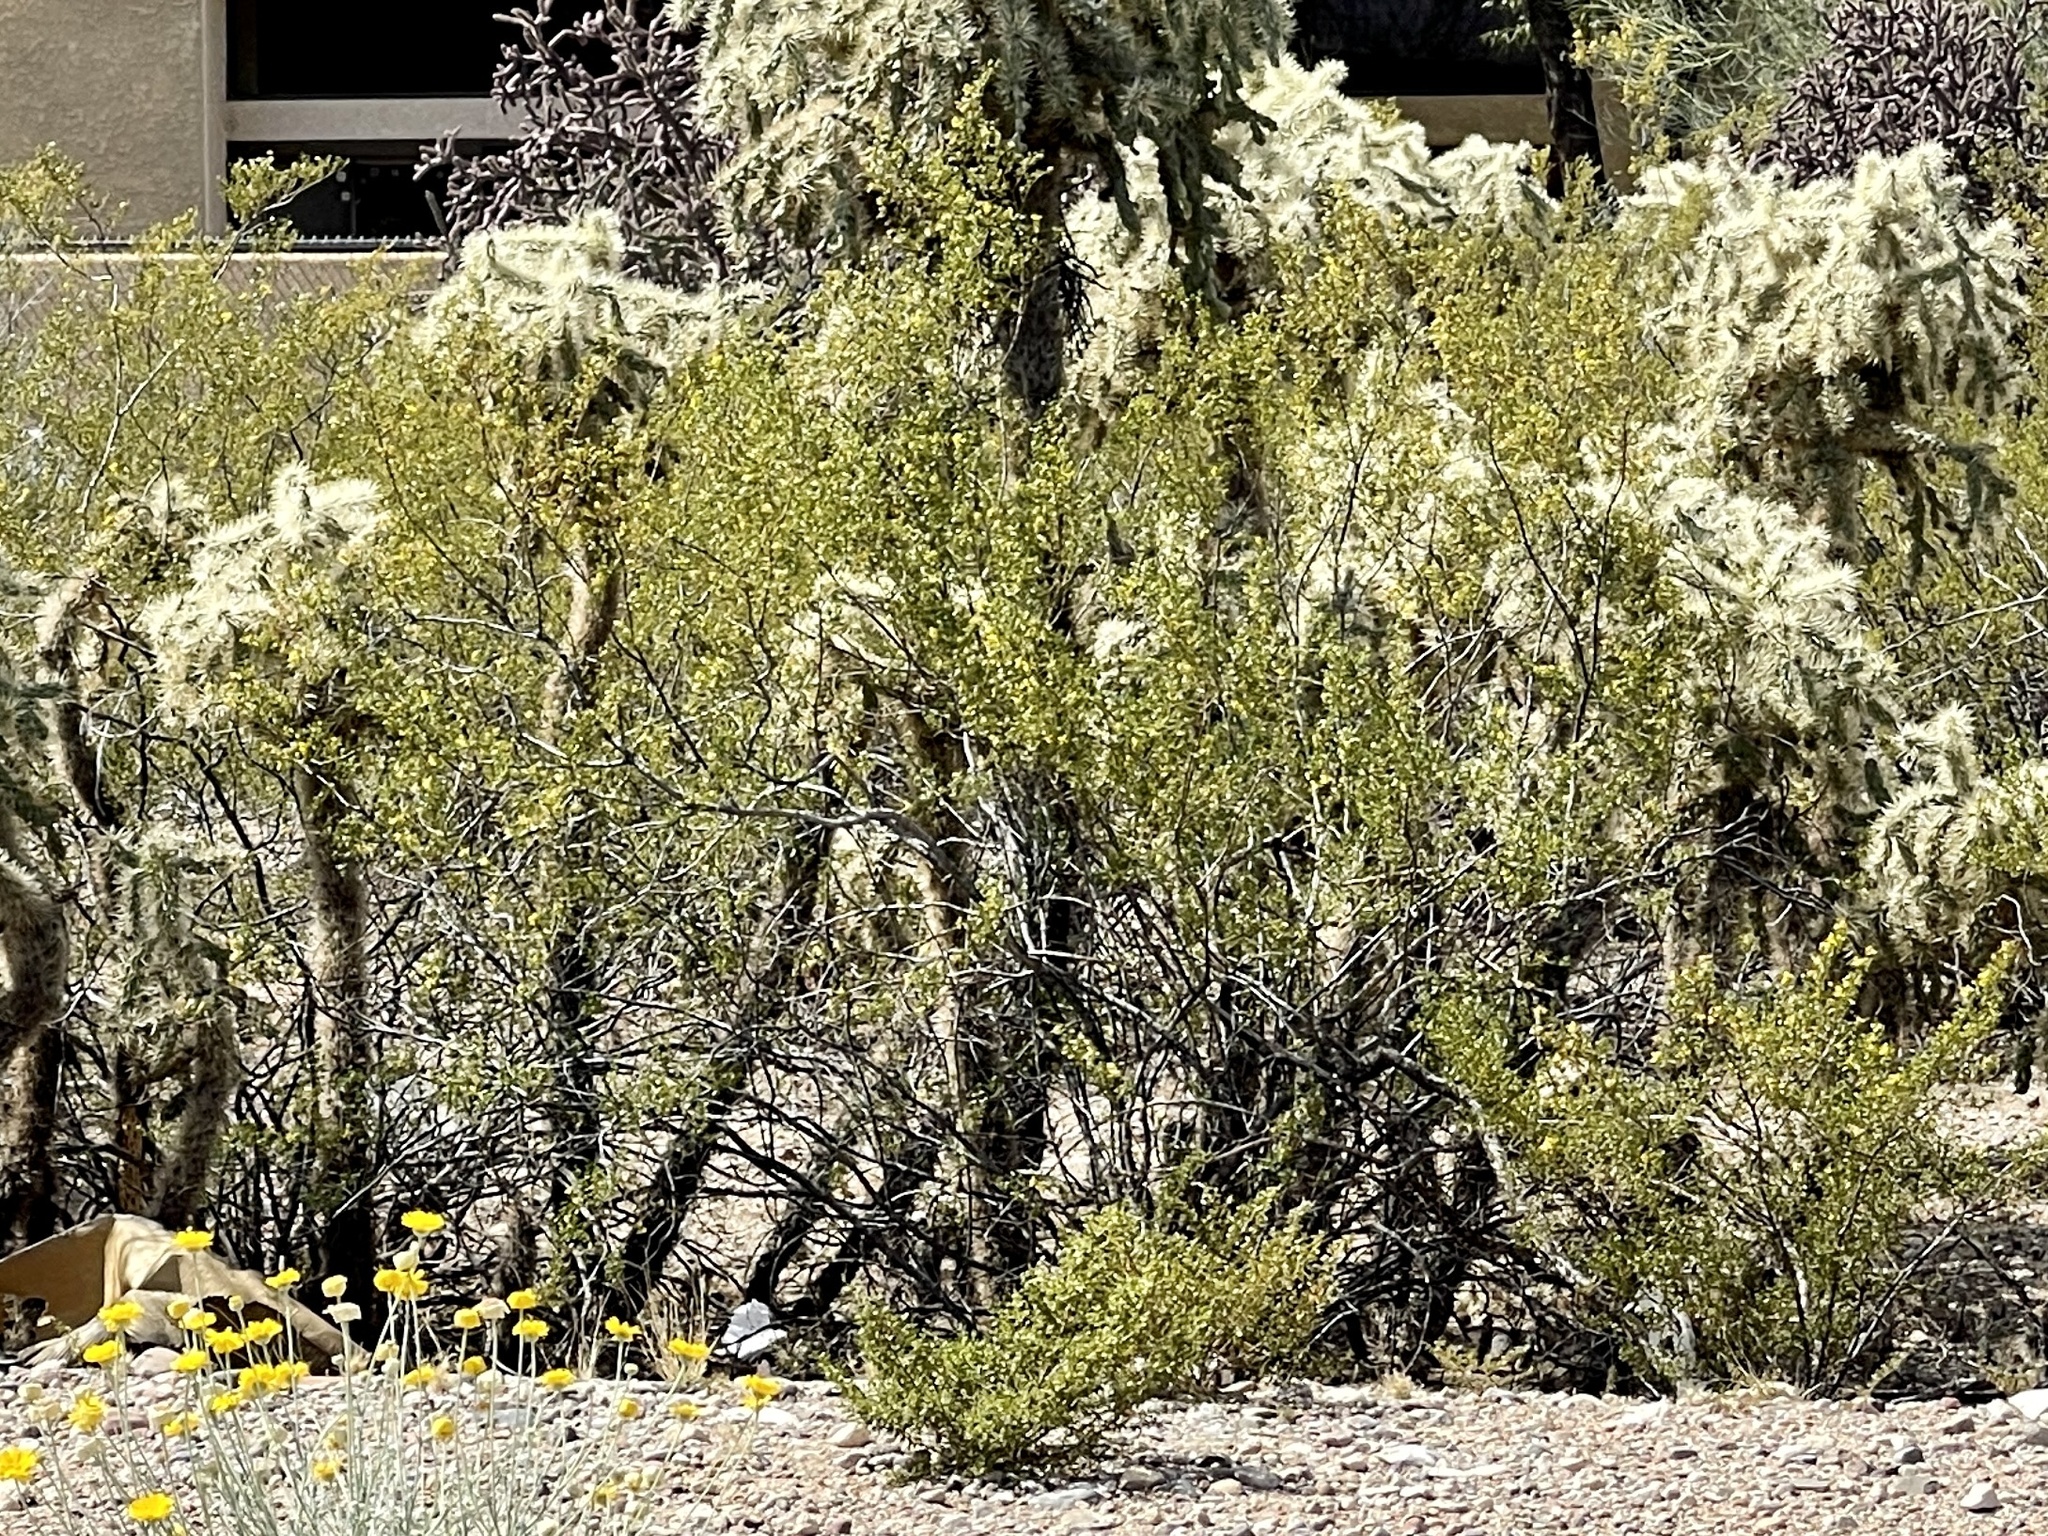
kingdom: Plantae
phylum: Tracheophyta
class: Magnoliopsida
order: Zygophyllales
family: Zygophyllaceae
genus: Larrea
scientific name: Larrea tridentata
